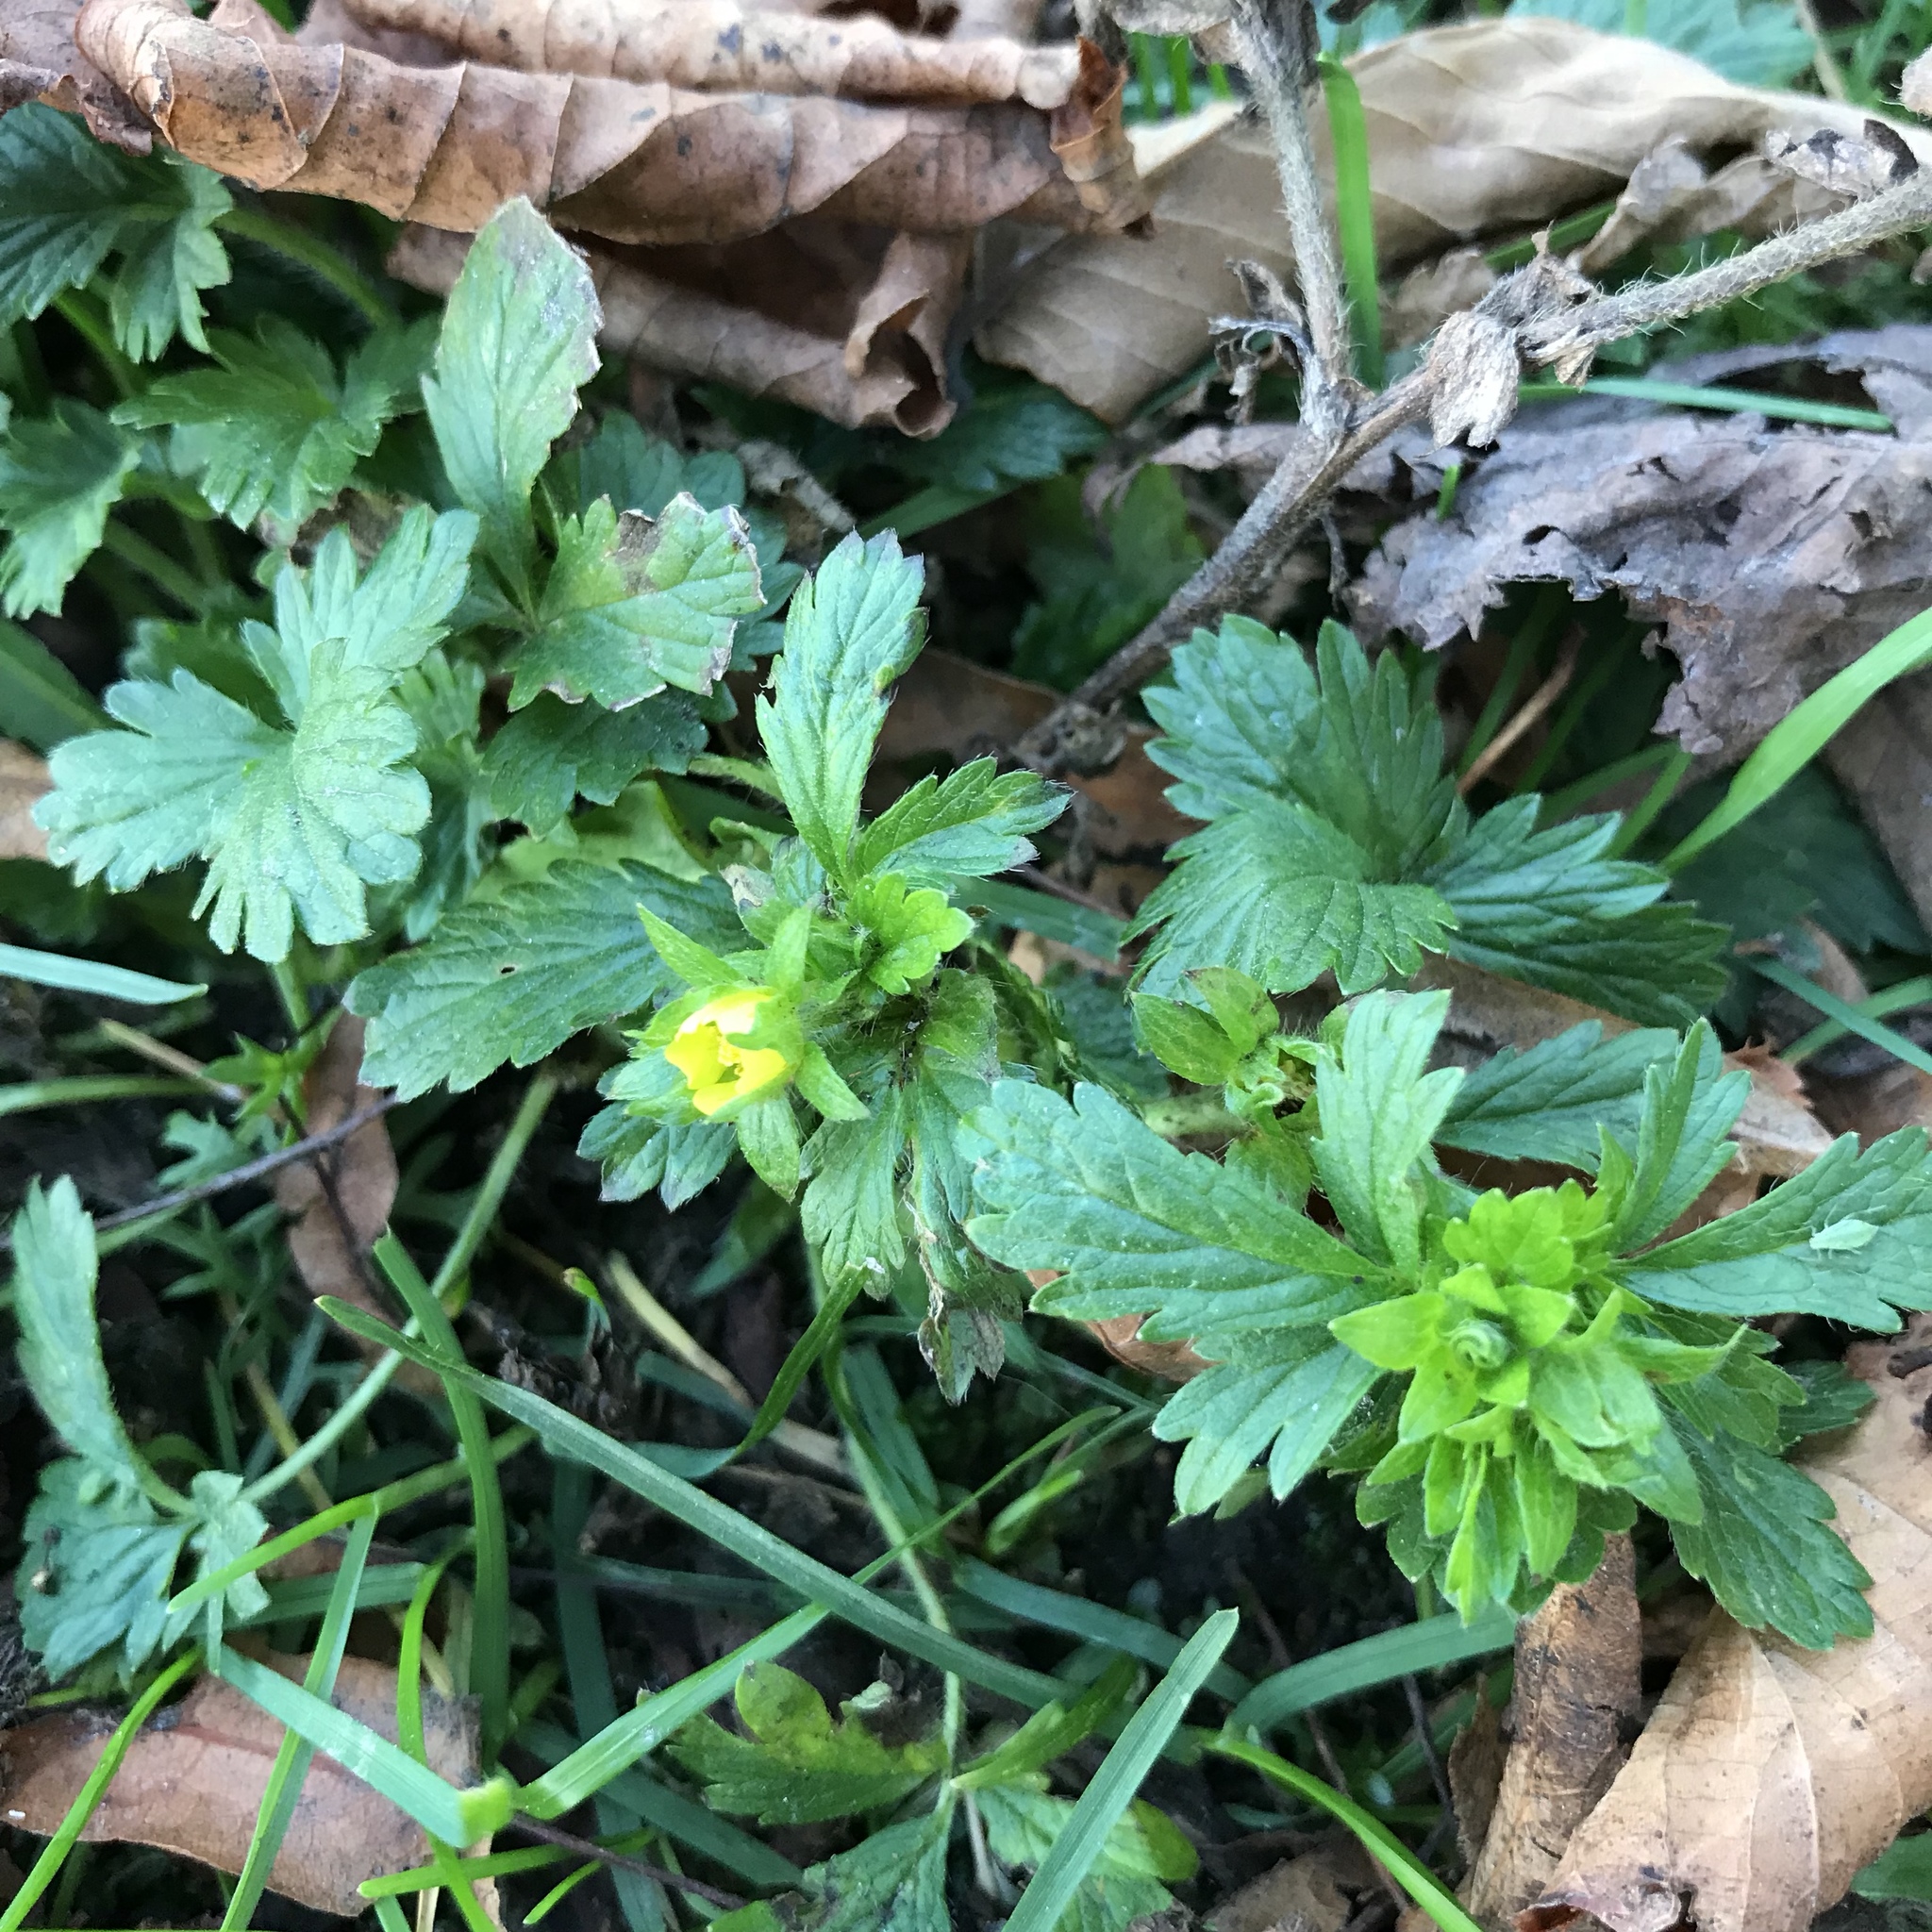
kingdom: Plantae
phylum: Tracheophyta
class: Magnoliopsida
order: Rosales
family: Rosaceae
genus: Potentilla
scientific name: Potentilla norvegica
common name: Ternate-leaved cinquefoil
